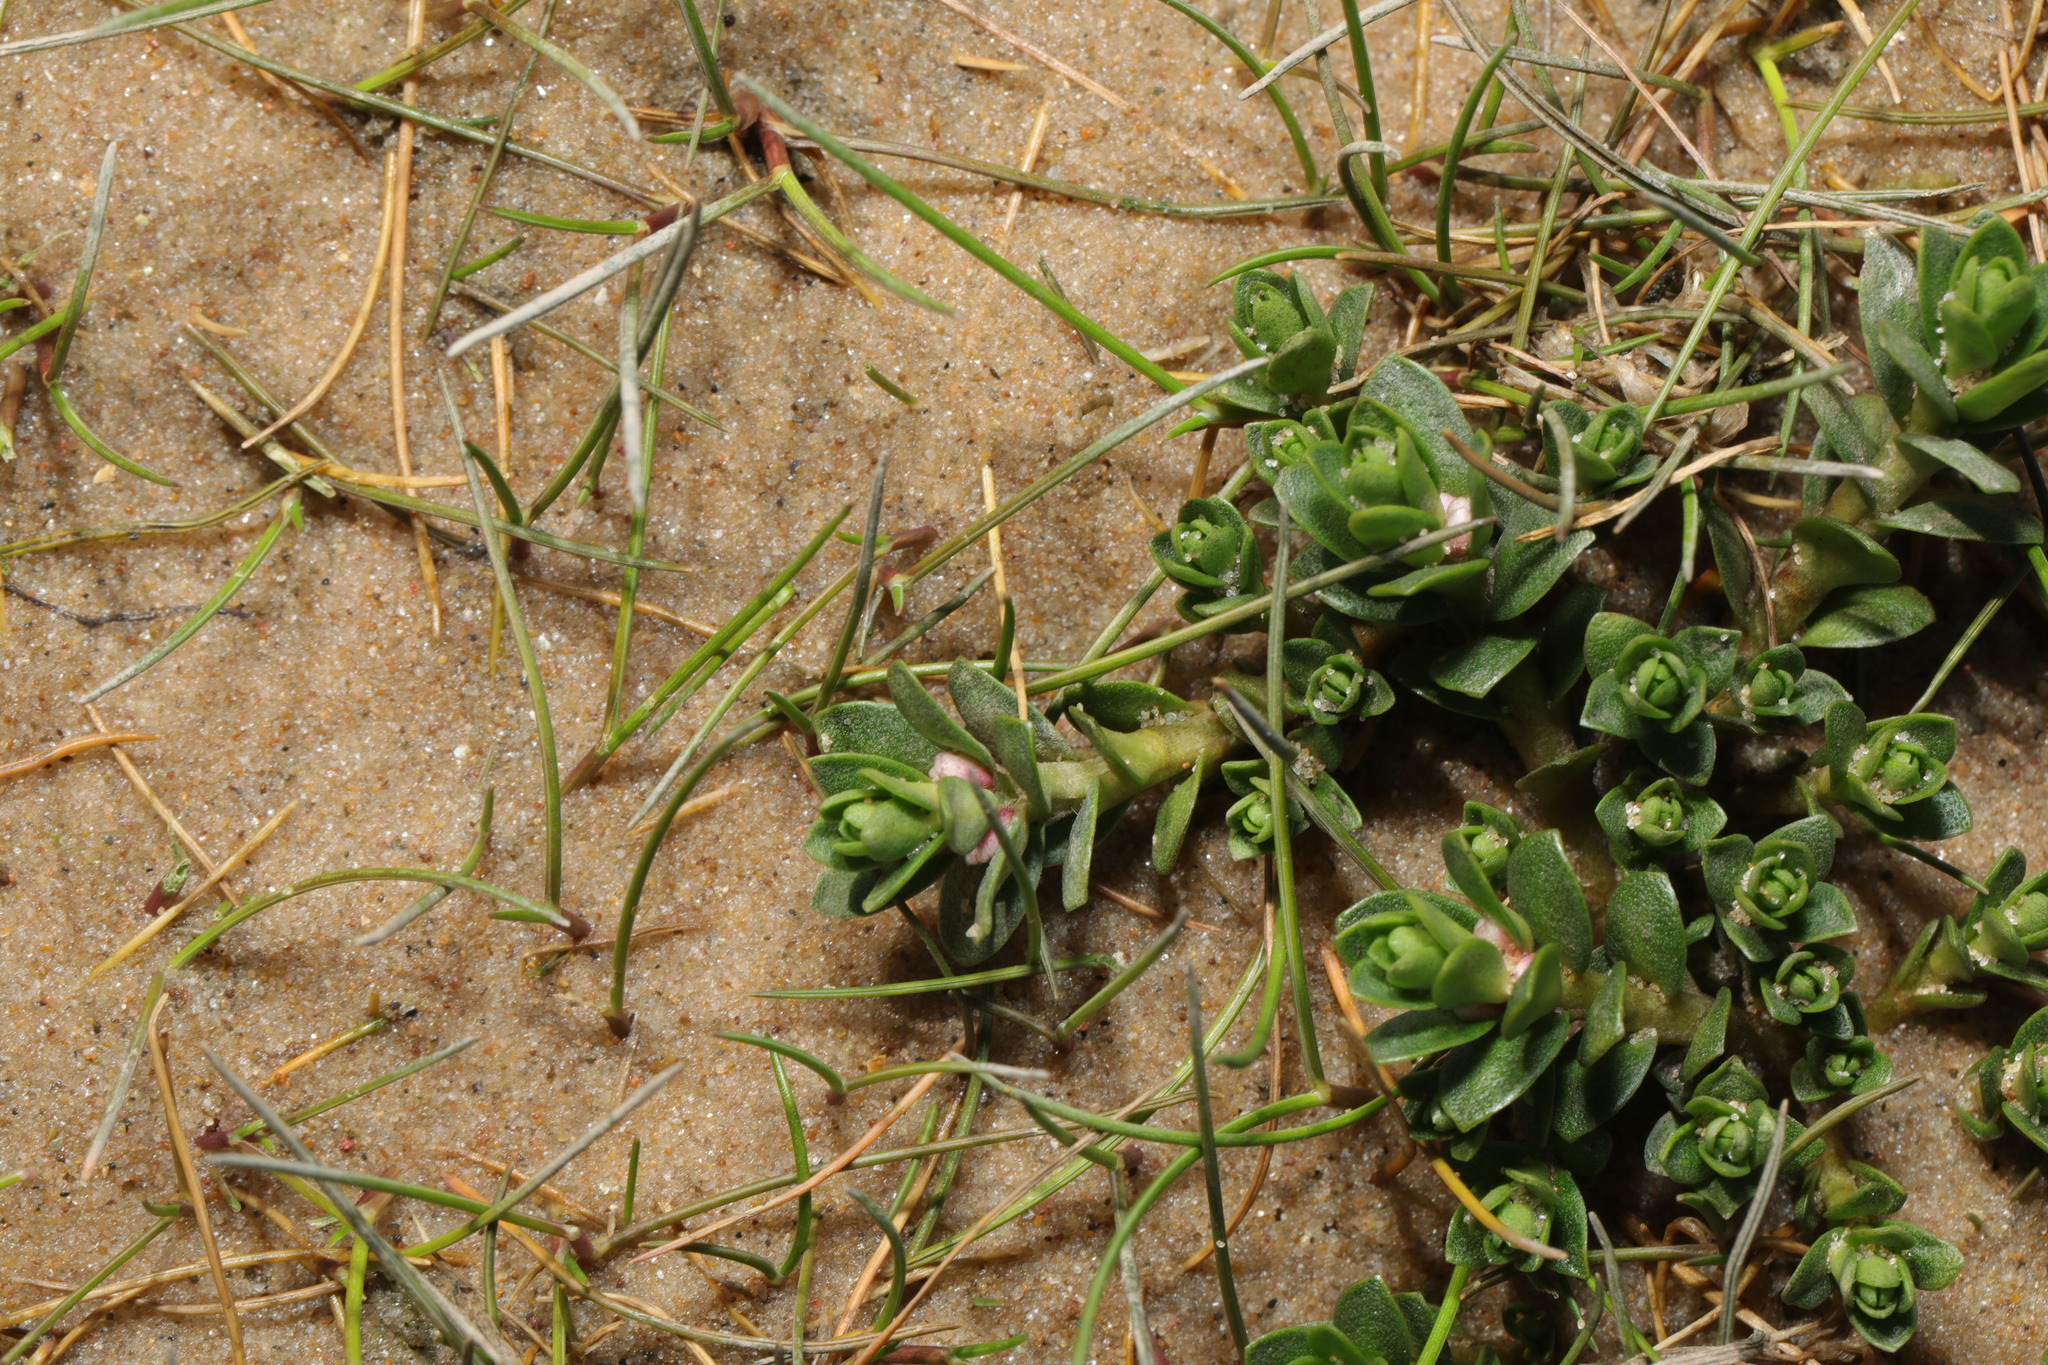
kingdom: Plantae
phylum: Tracheophyta
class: Magnoliopsida
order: Ericales
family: Primulaceae
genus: Lysimachia
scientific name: Lysimachia maritima
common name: Sea milkwort
